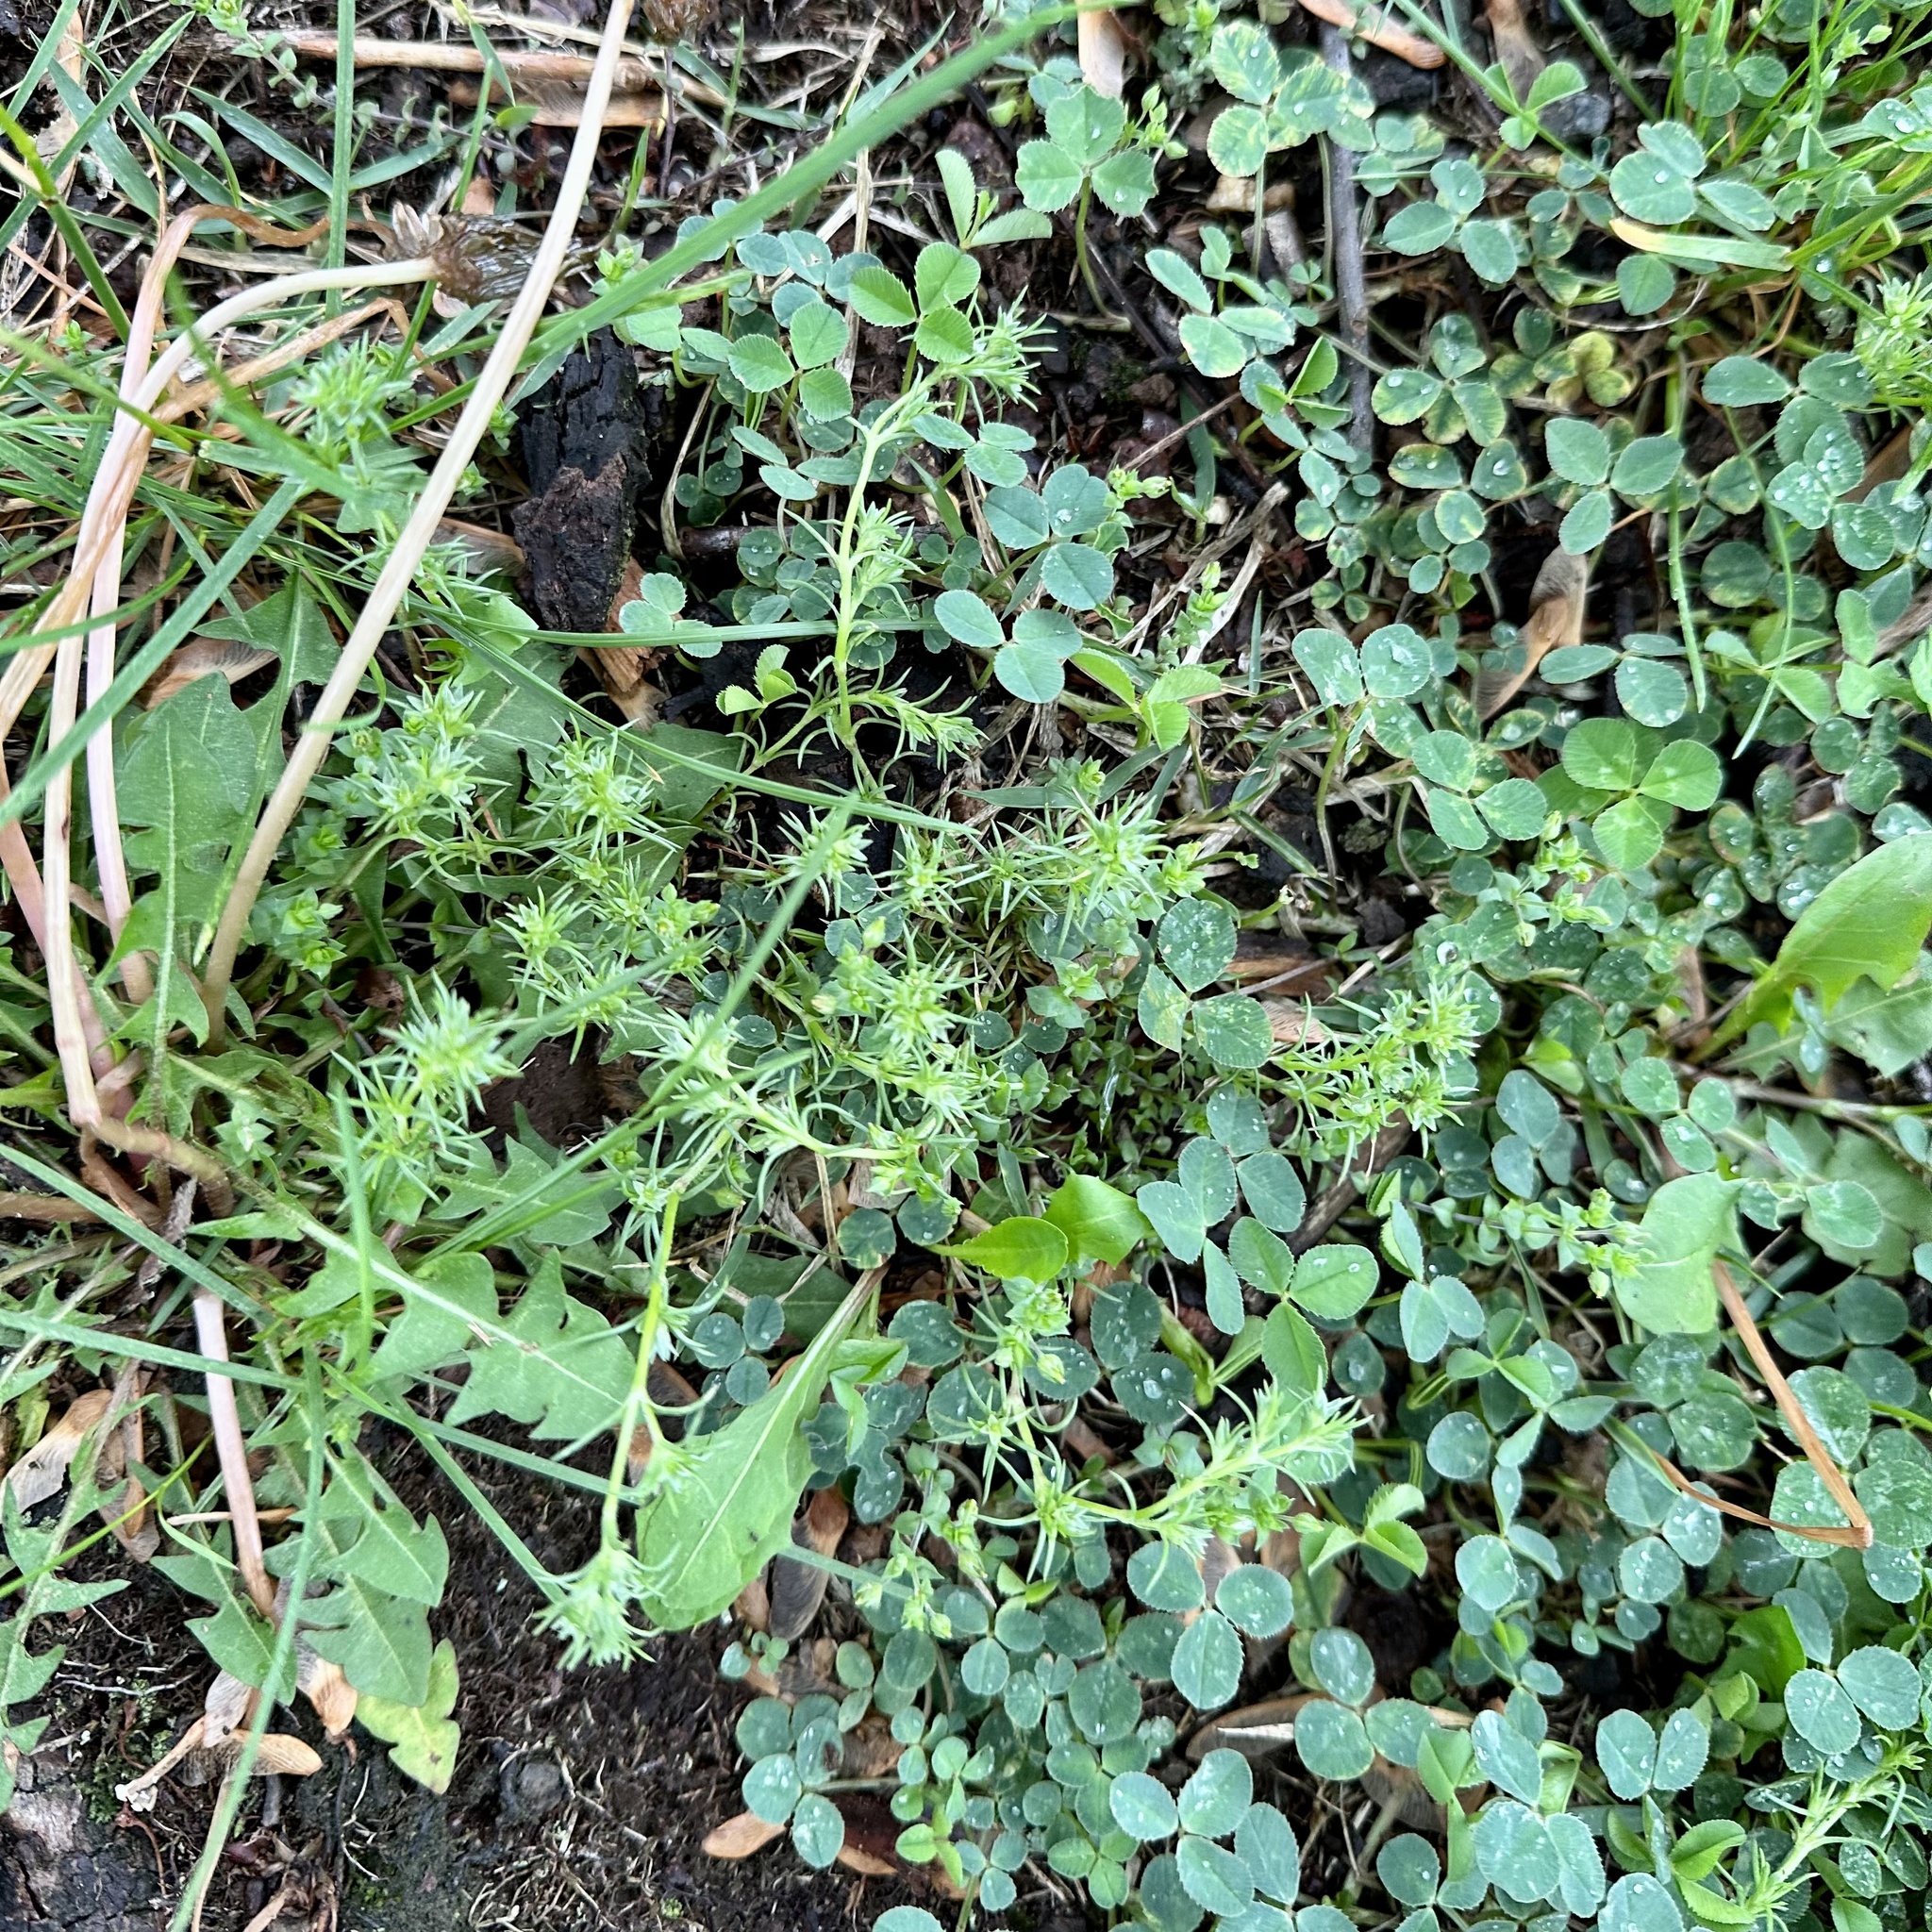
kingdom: Plantae
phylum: Tracheophyta
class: Magnoliopsida
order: Caryophyllales
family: Caryophyllaceae
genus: Scleranthus
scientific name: Scleranthus annuus
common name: Annual knawel
